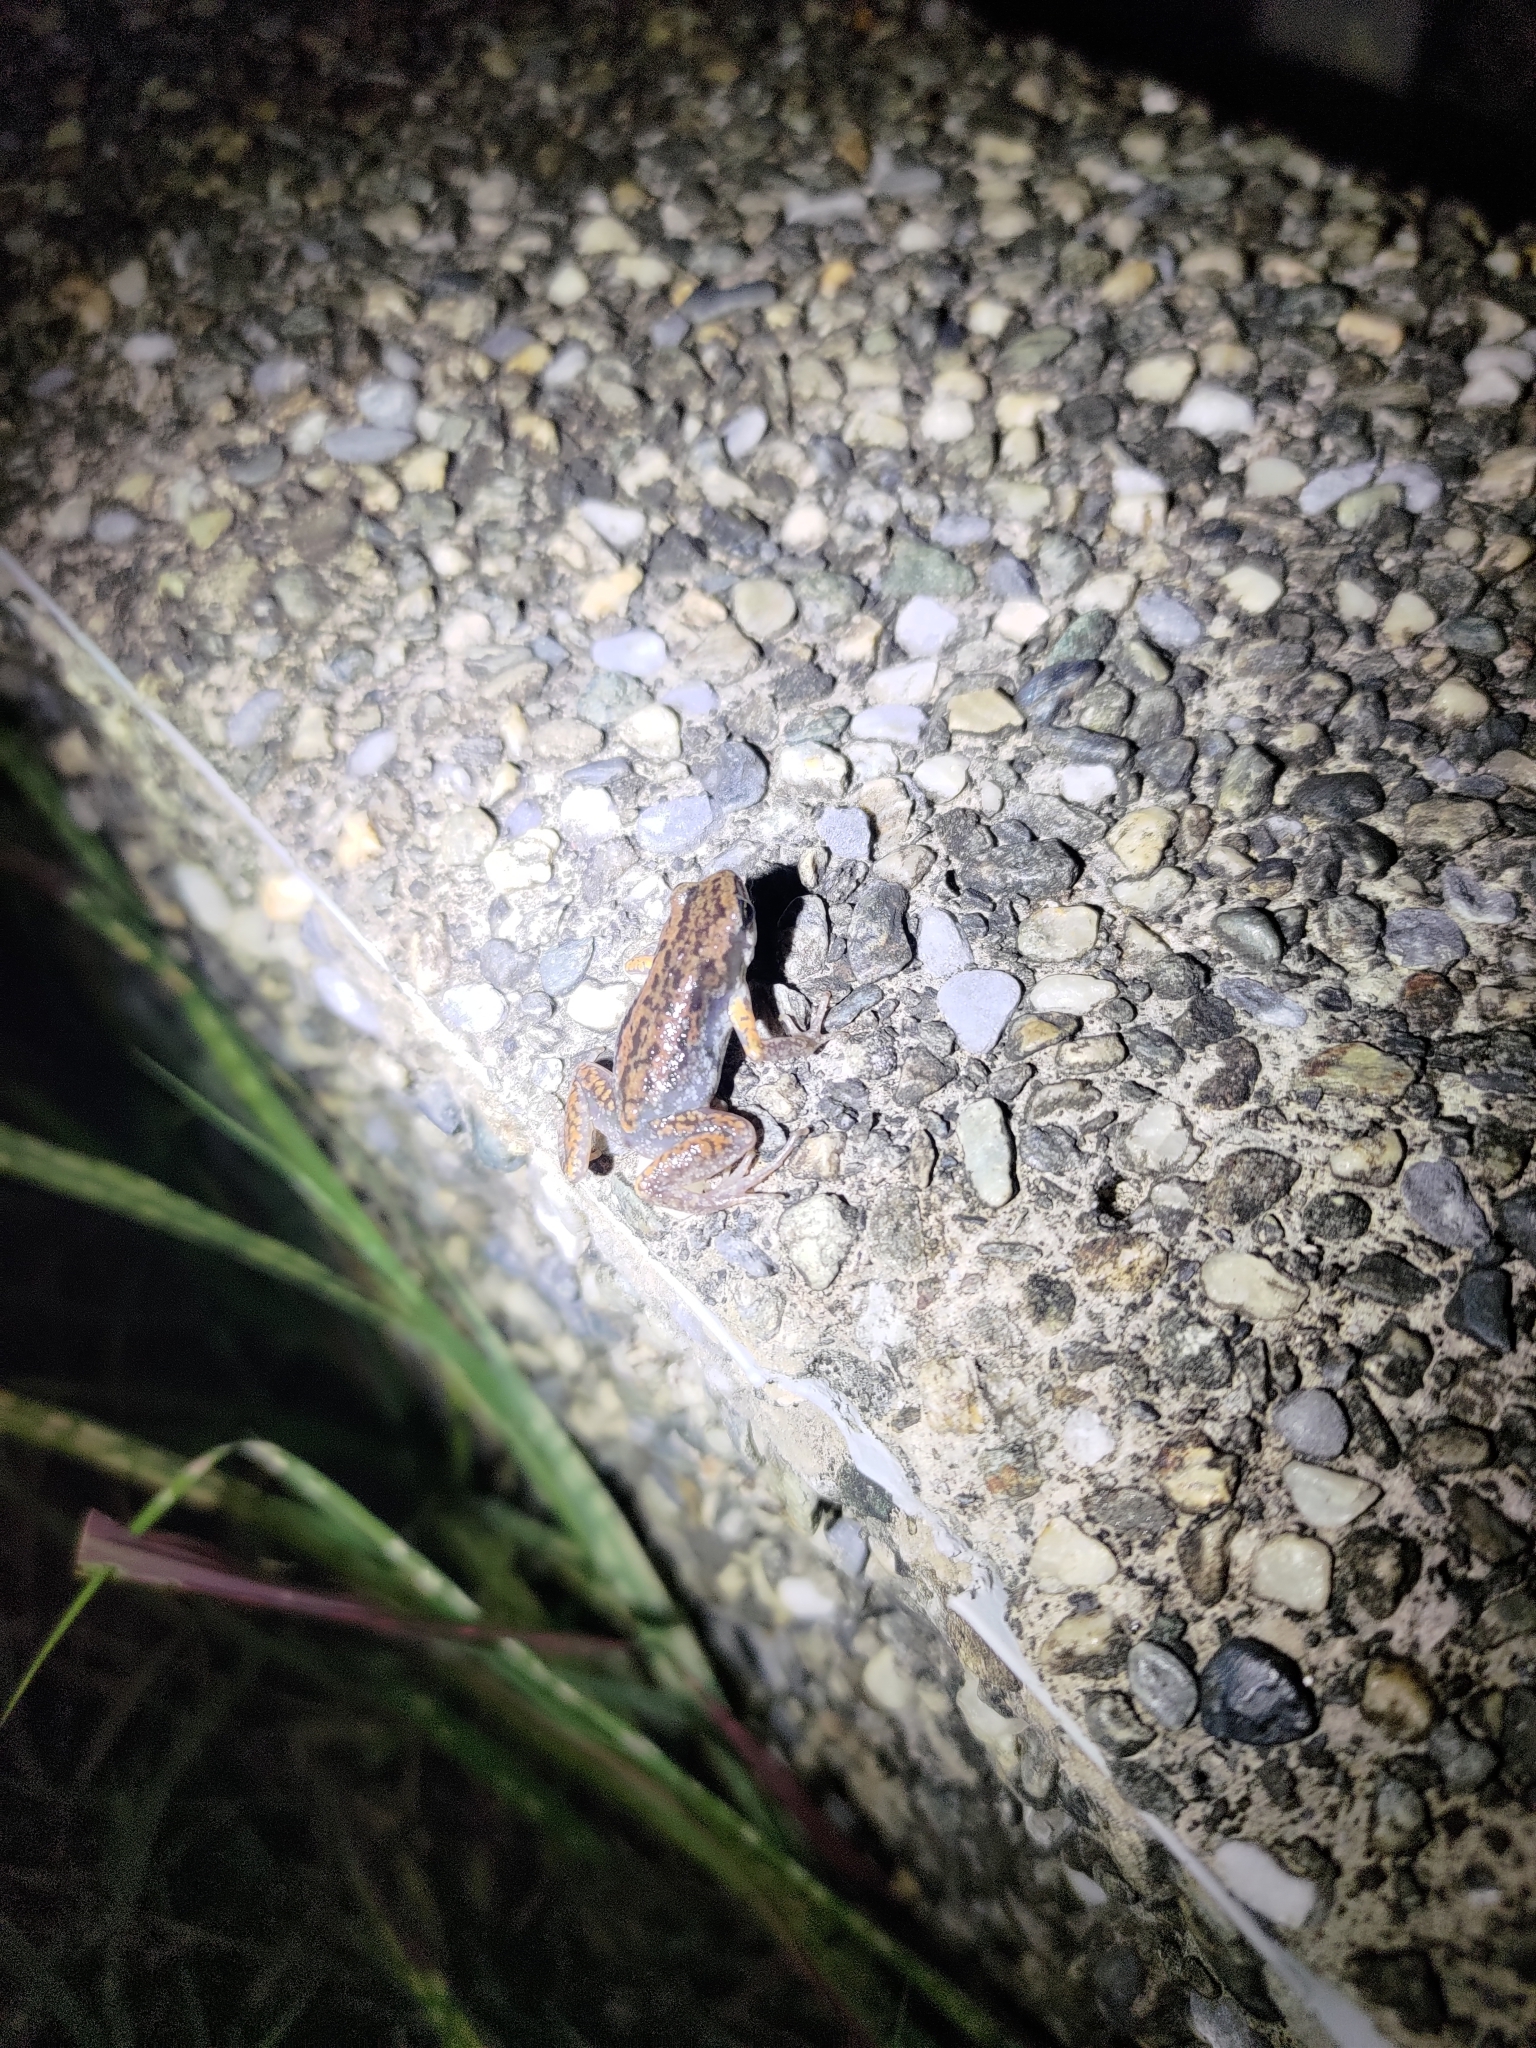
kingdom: Animalia
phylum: Chordata
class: Amphibia
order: Anura
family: Microhylidae
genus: Micryletta
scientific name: Micryletta steinegeri
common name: Stejneger's paddy frog
